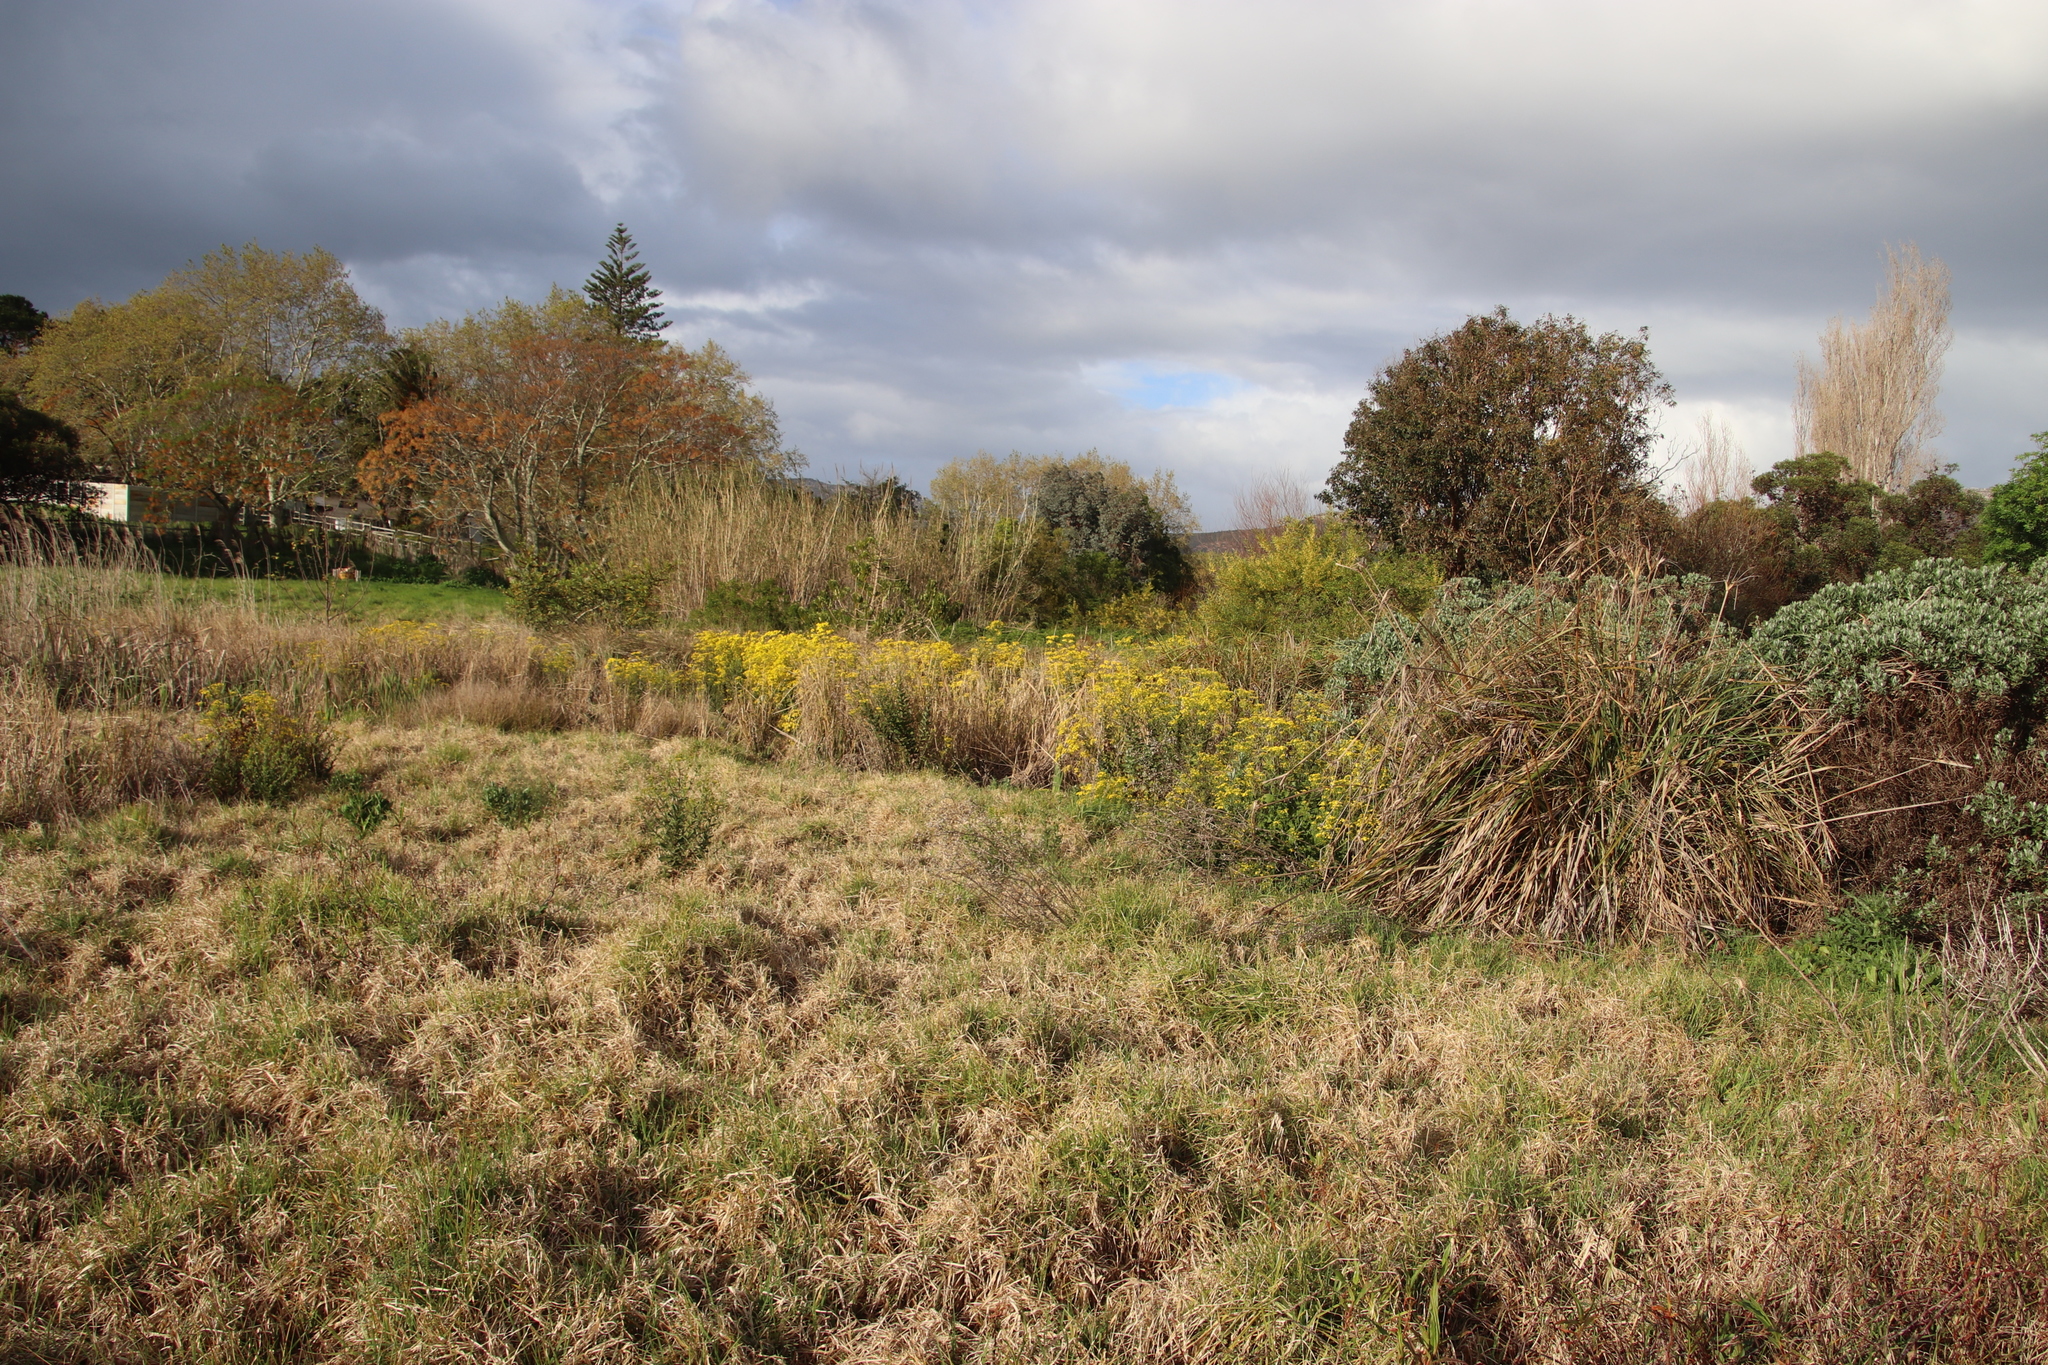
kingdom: Plantae
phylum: Tracheophyta
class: Magnoliopsida
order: Asterales
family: Asteraceae
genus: Senecio
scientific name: Senecio subcanescens
